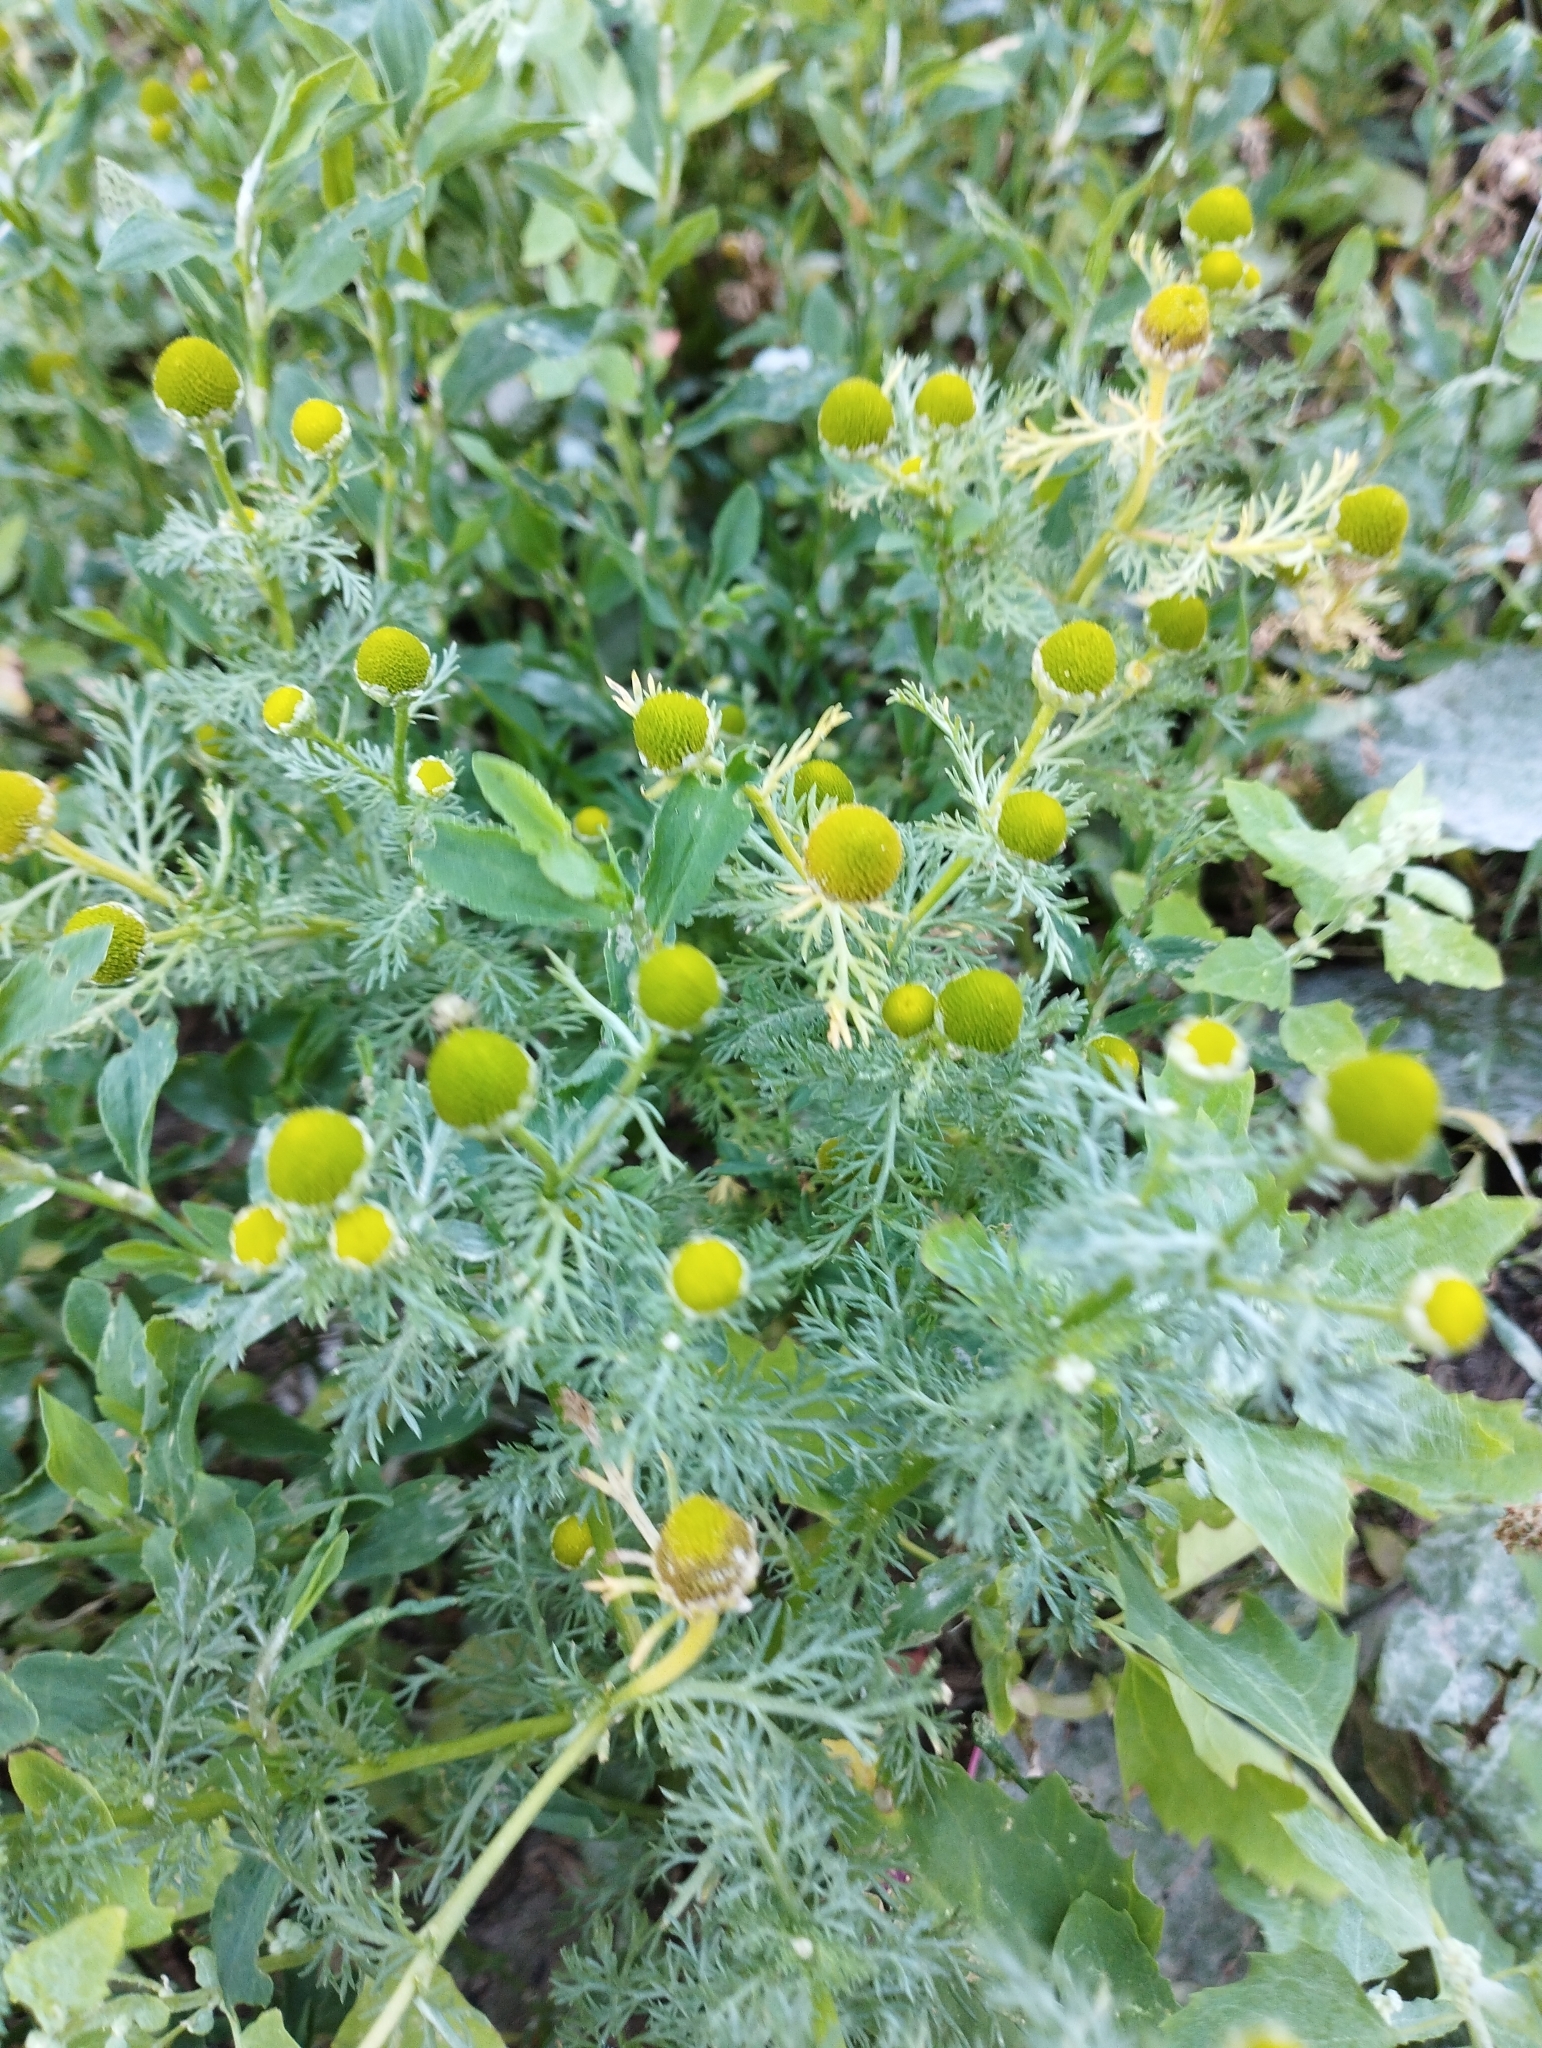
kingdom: Plantae
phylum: Tracheophyta
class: Magnoliopsida
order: Asterales
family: Asteraceae
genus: Matricaria
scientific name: Matricaria discoidea
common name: Disc mayweed
